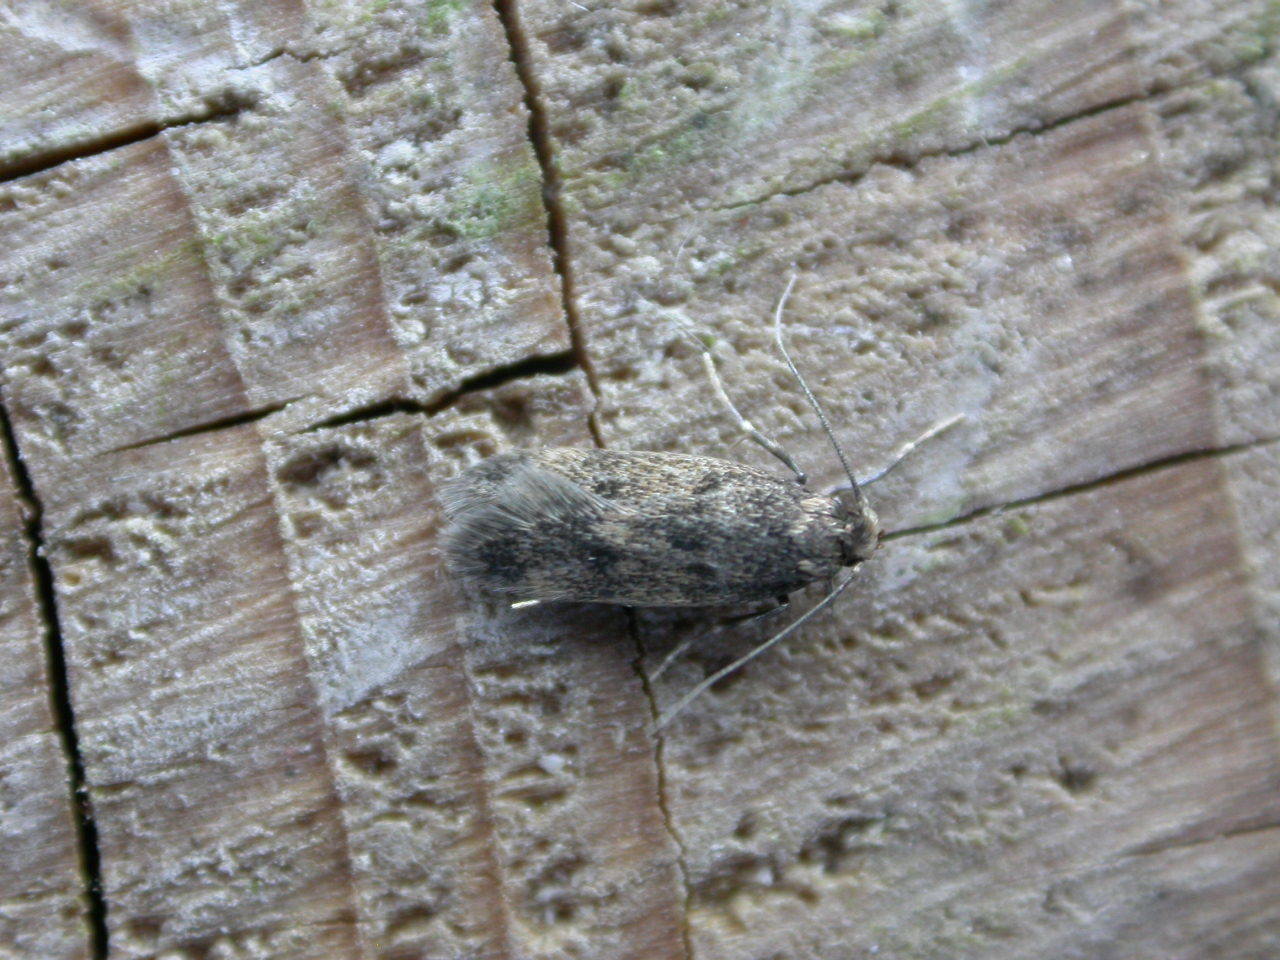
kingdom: Animalia
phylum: Arthropoda
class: Insecta
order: Lepidoptera
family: Oecophoridae
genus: Borkhausenia
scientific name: Borkhausenia fuscescens
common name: Small dingy tubic
